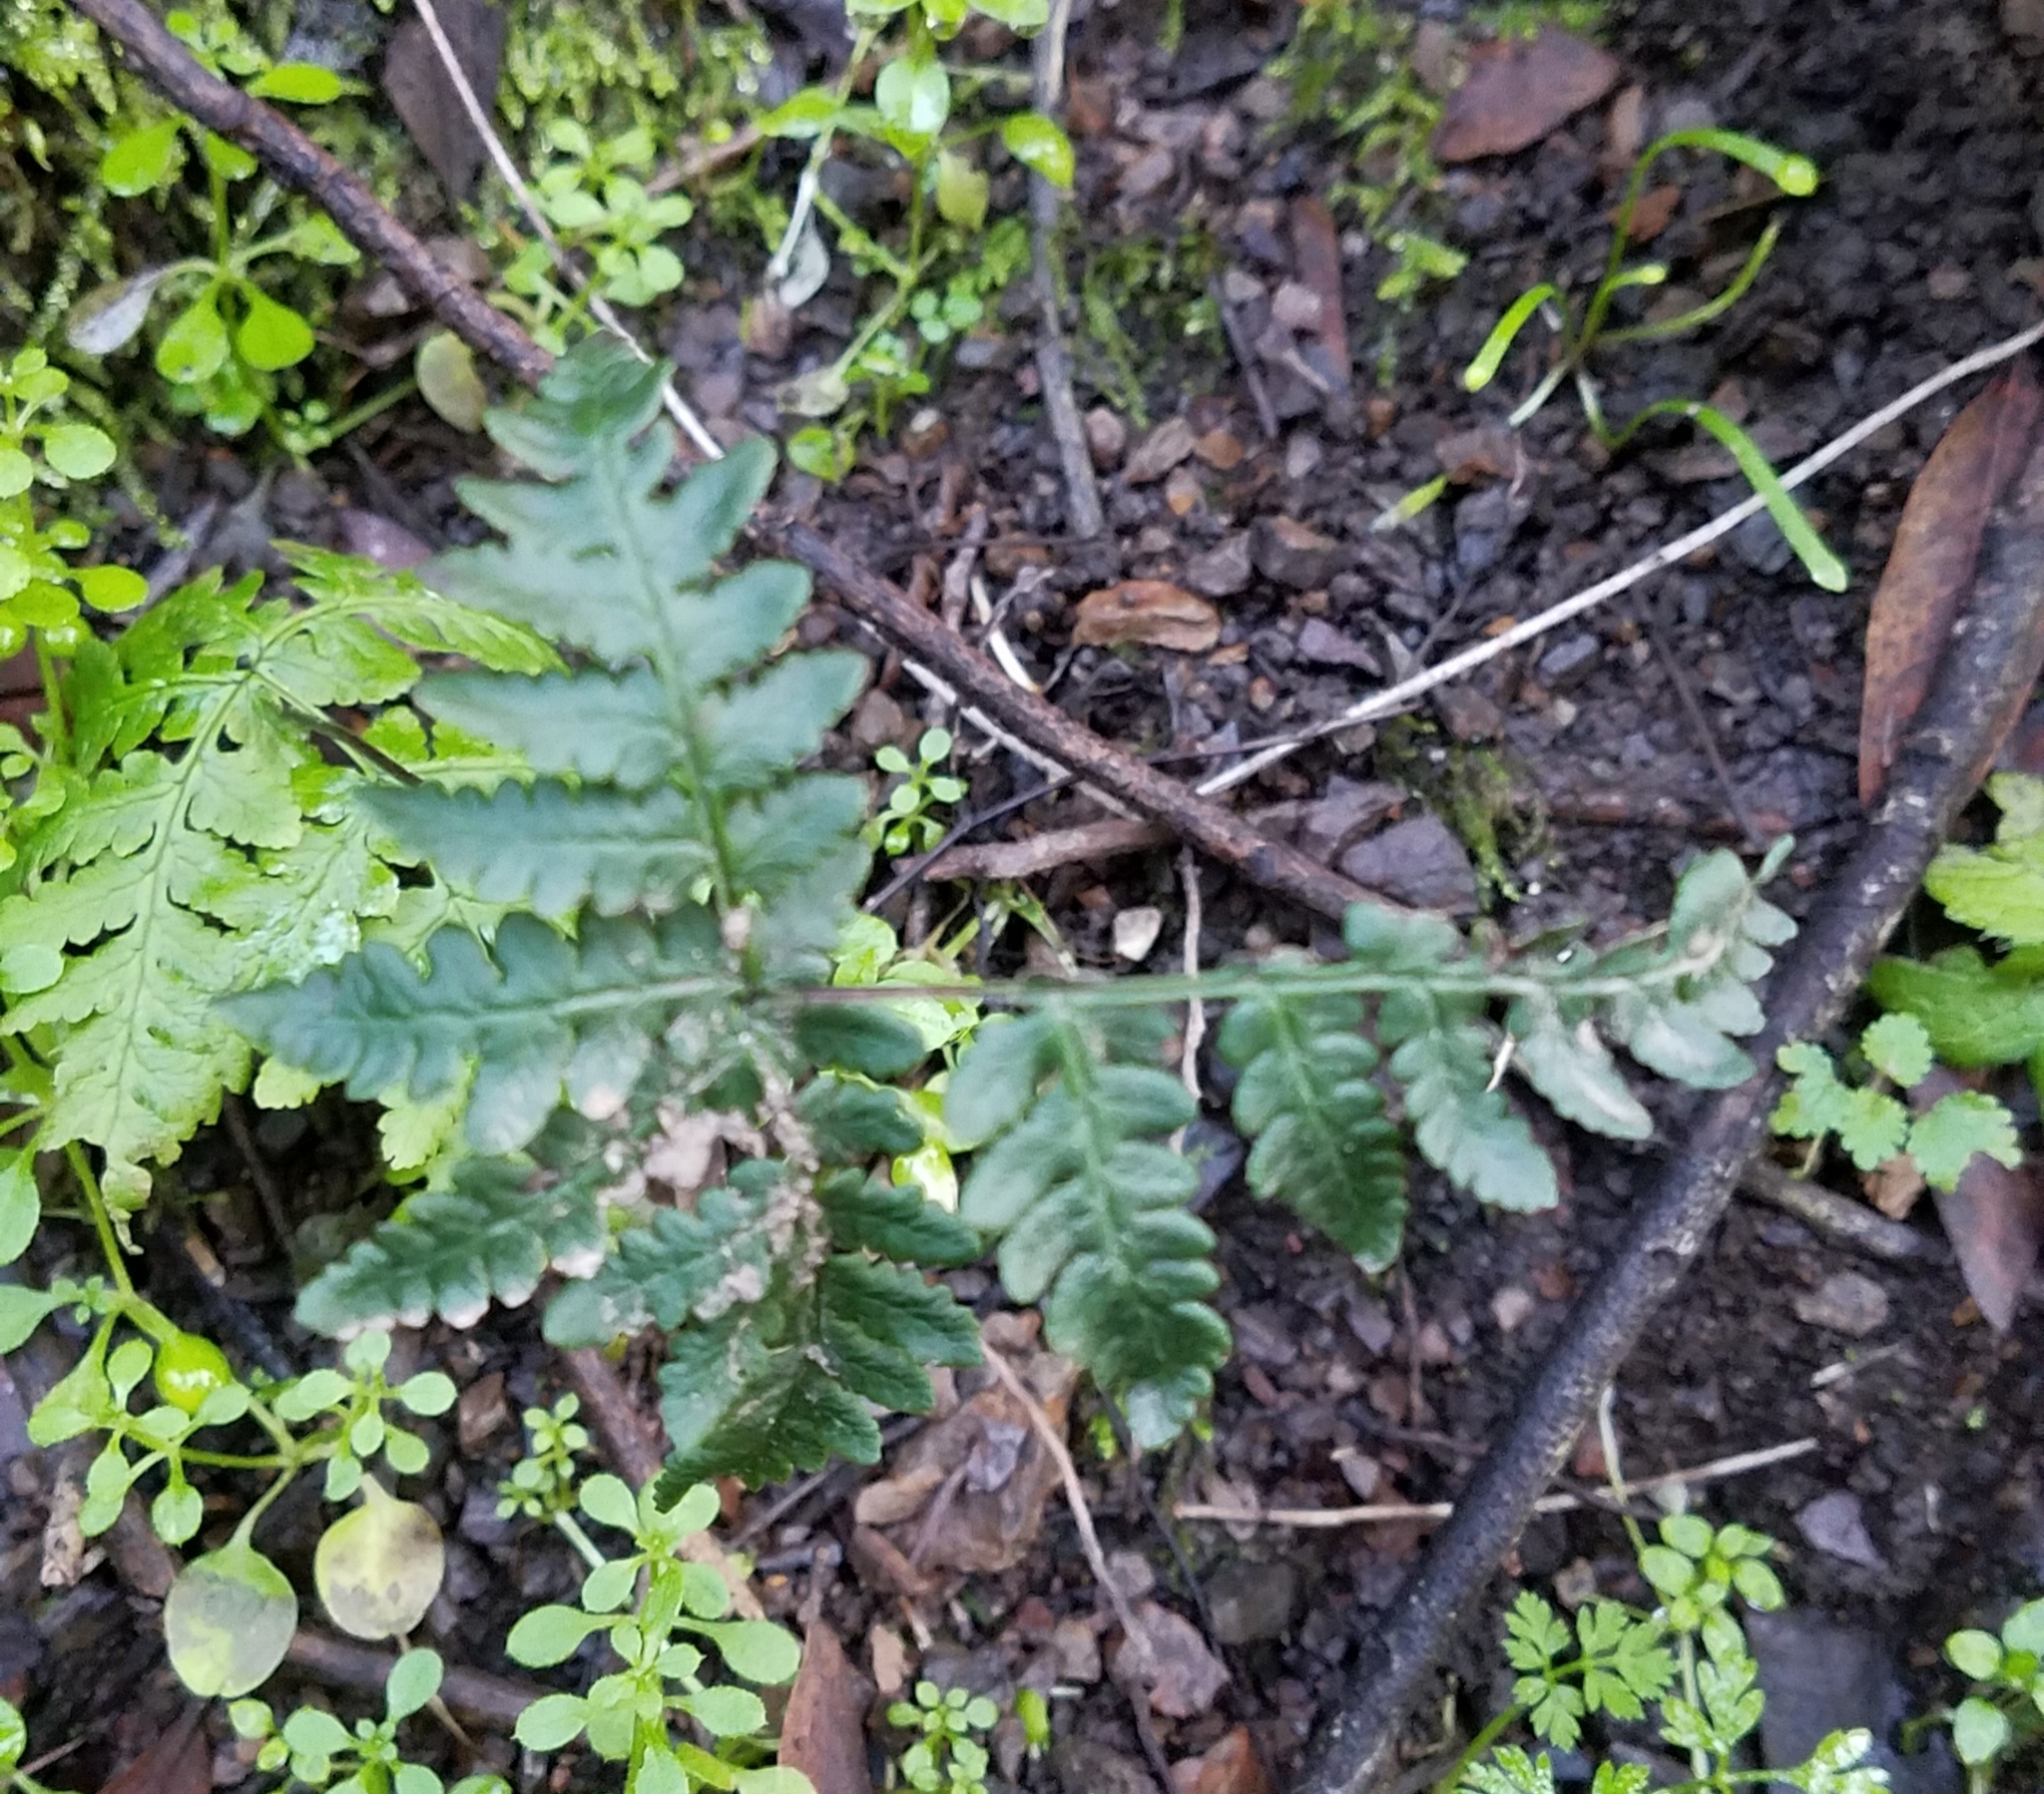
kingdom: Plantae
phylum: Tracheophyta
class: Polypodiopsida
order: Polypodiales
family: Pteridaceae
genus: Pentagramma
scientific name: Pentagramma triangularis
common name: Gold fern
